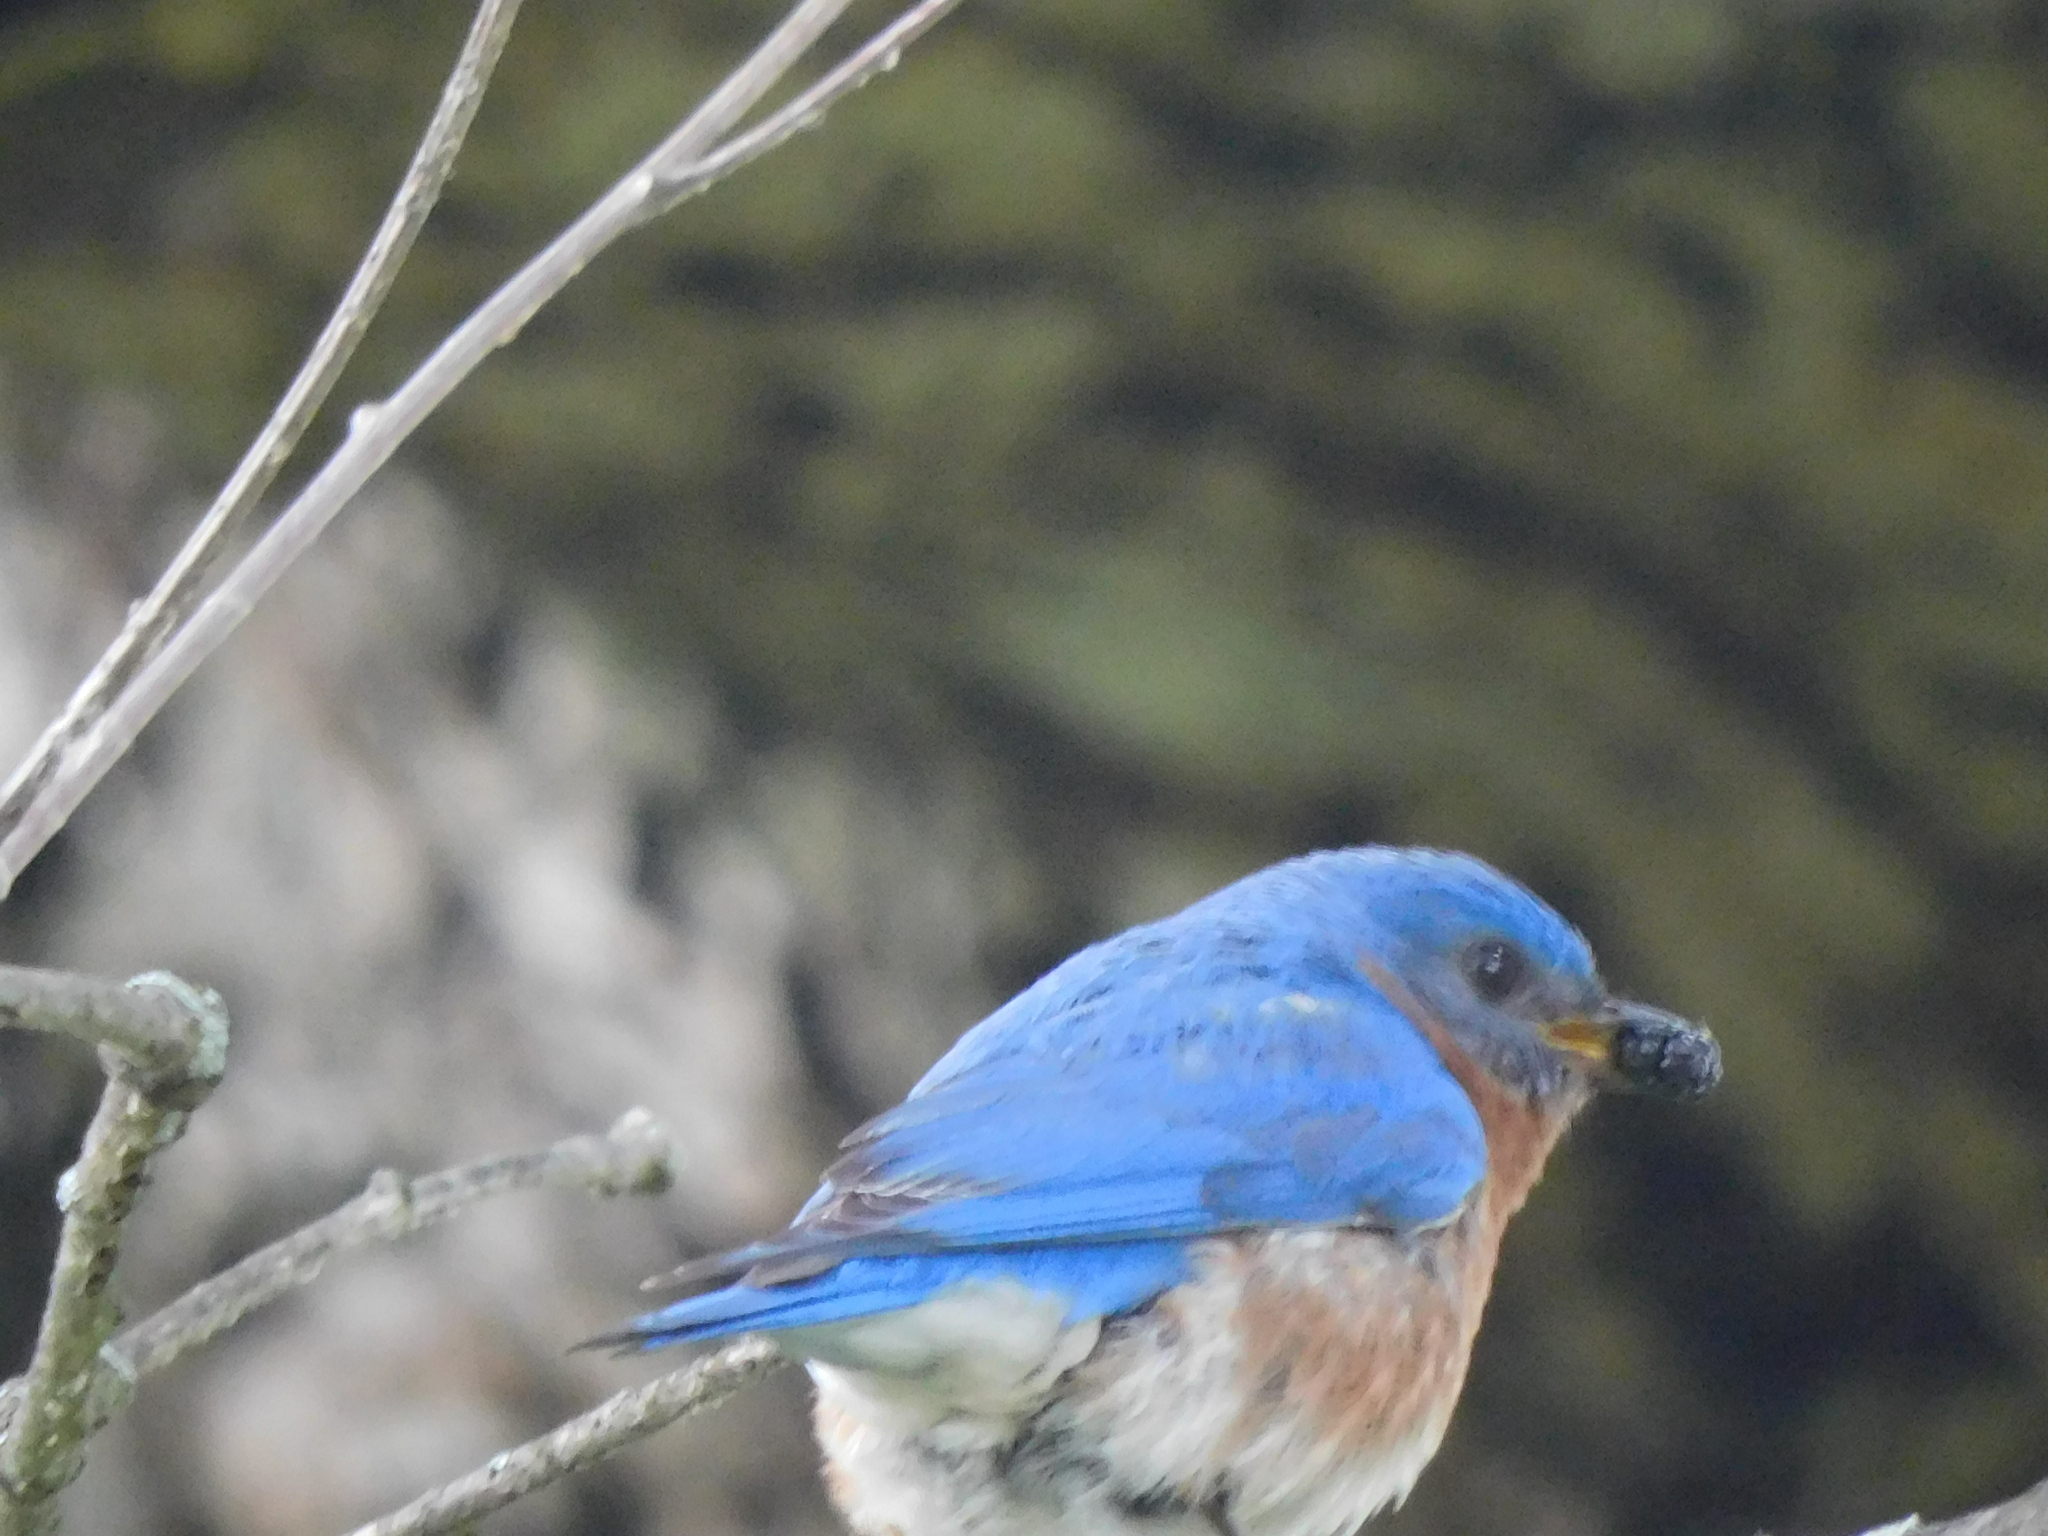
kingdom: Animalia
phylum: Chordata
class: Aves
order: Passeriformes
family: Turdidae
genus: Sialia
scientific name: Sialia sialis
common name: Eastern bluebird
